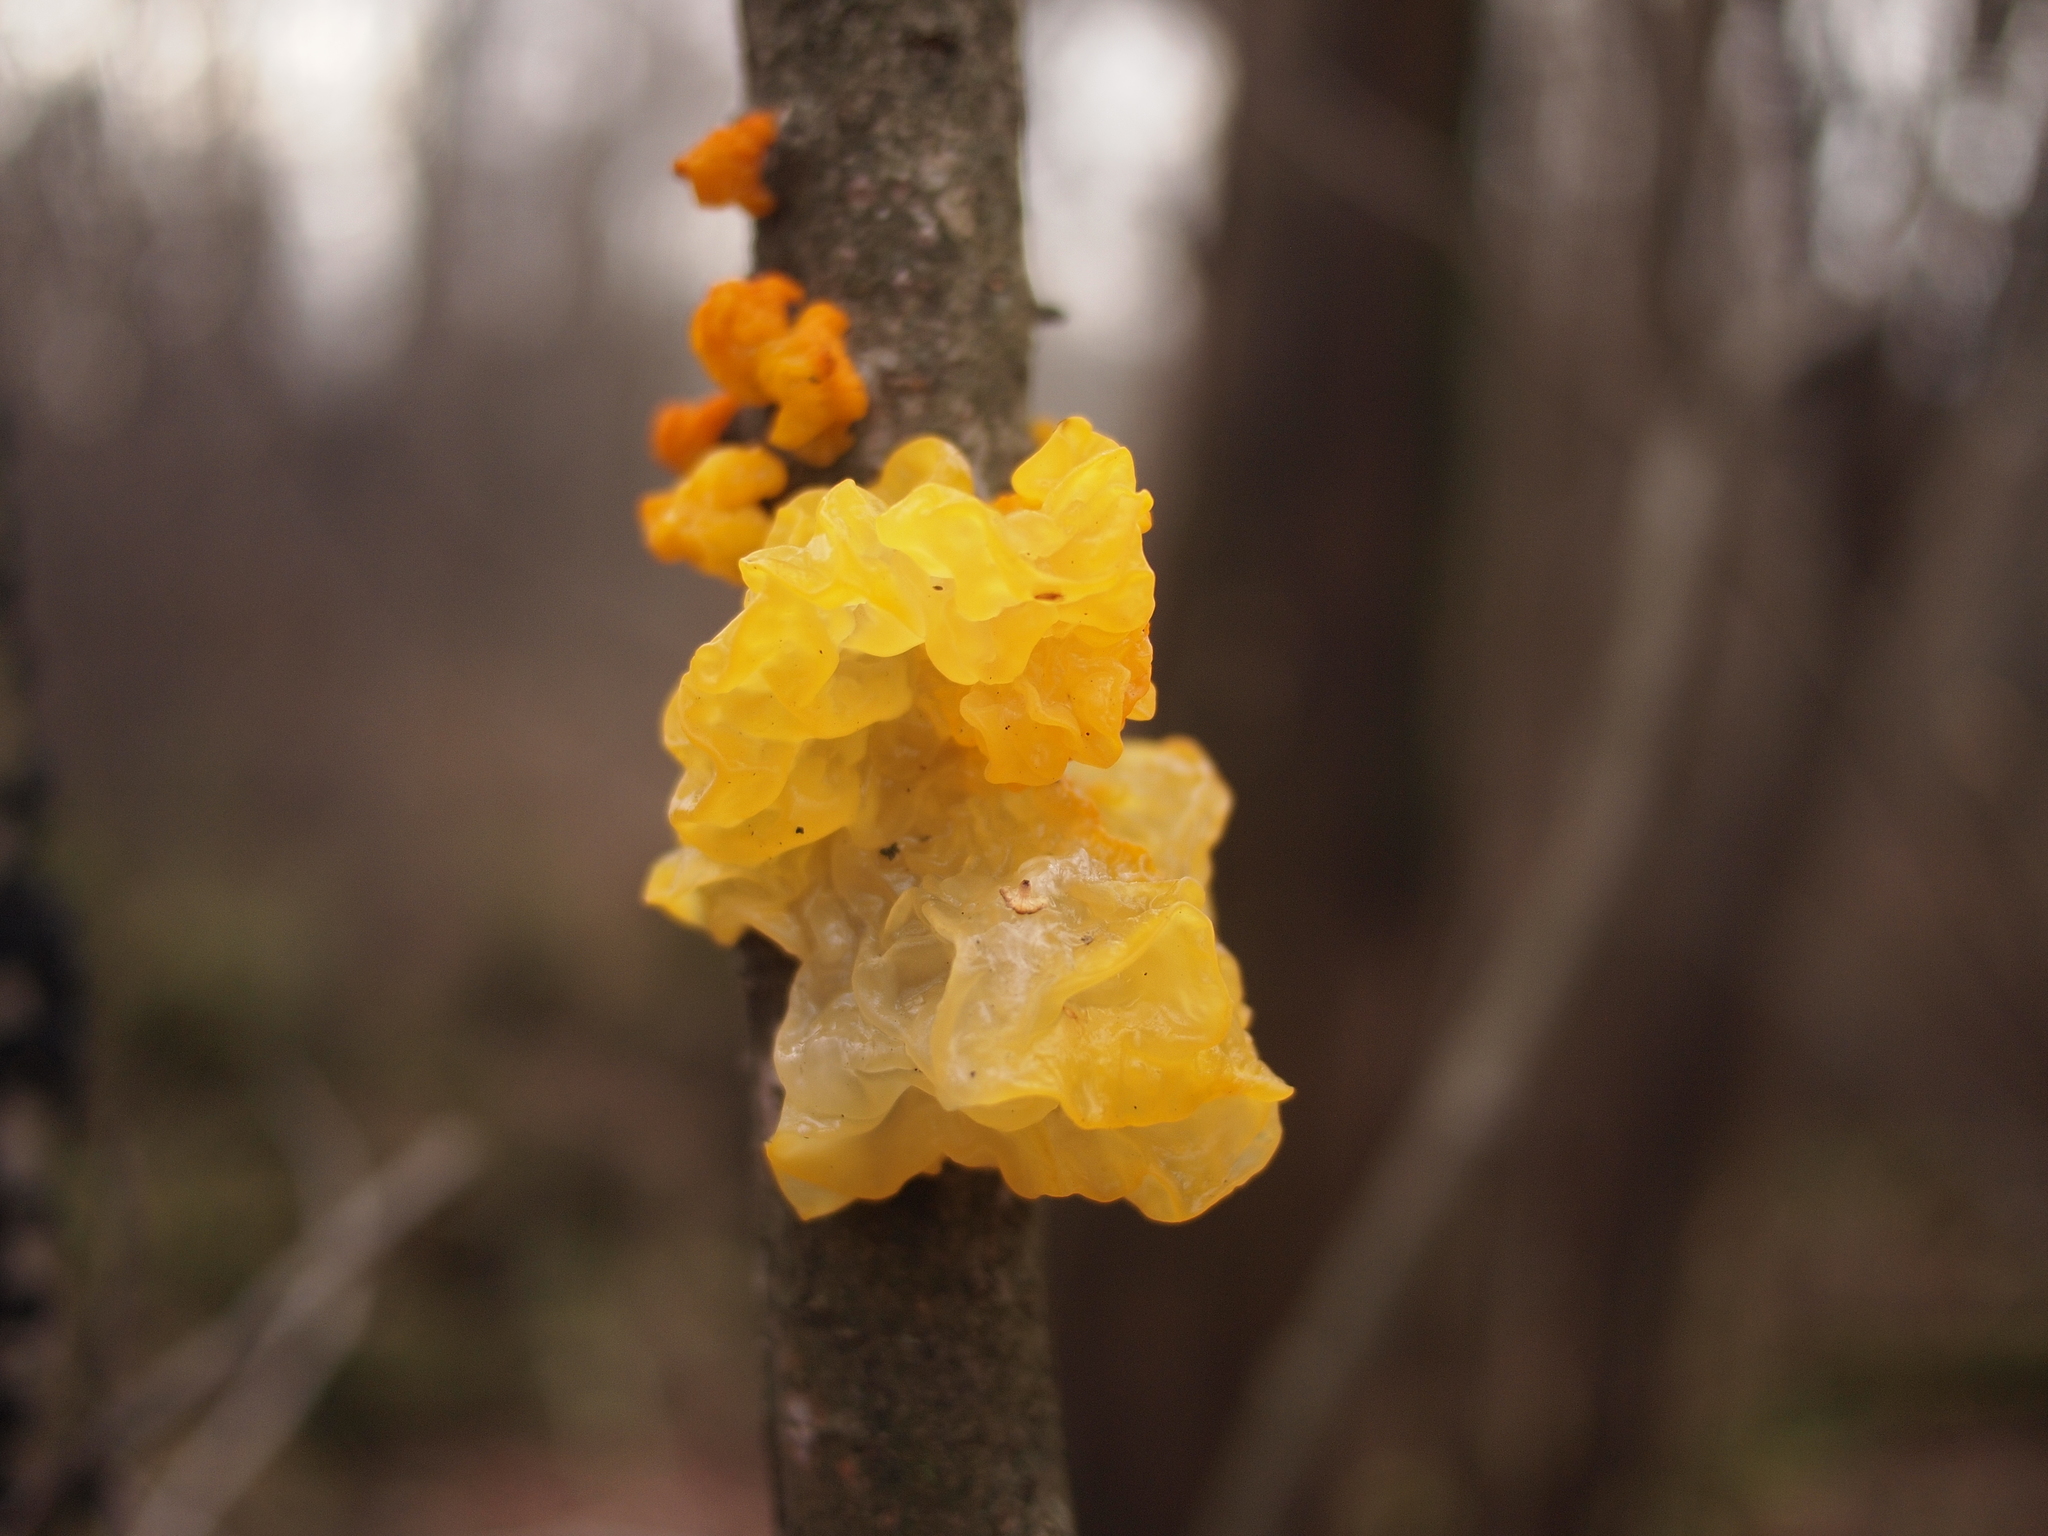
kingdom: Fungi
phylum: Basidiomycota
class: Tremellomycetes
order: Tremellales
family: Tremellaceae
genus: Tremella
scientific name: Tremella mesenterica
